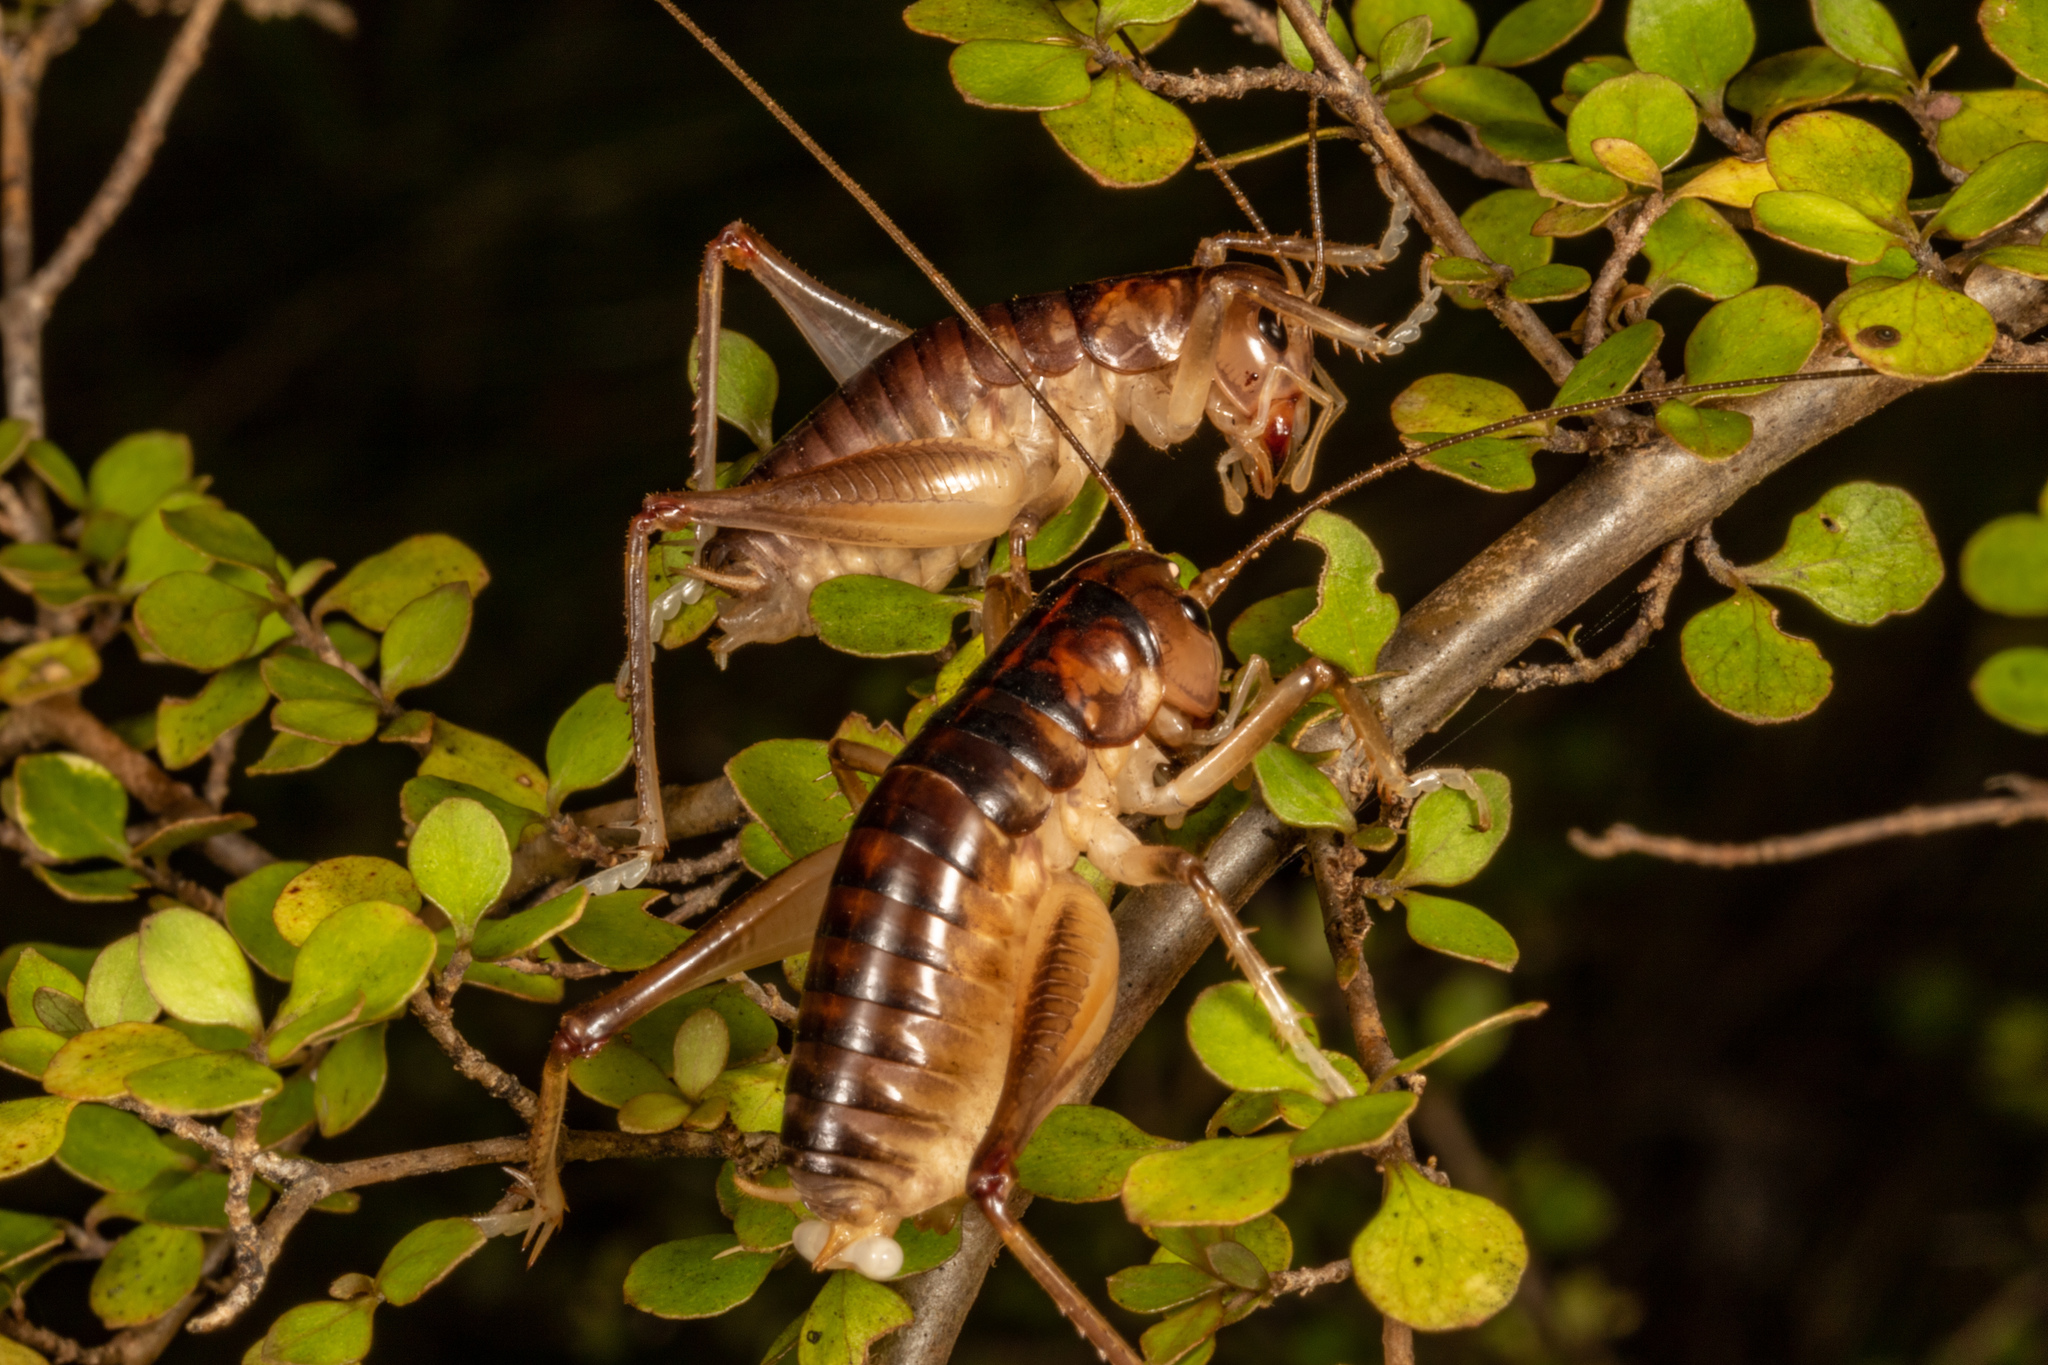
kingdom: Animalia
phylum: Arthropoda
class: Insecta
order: Orthoptera
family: Anostostomatidae
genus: Hemiandrus
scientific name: Hemiandrus pallitarsis
